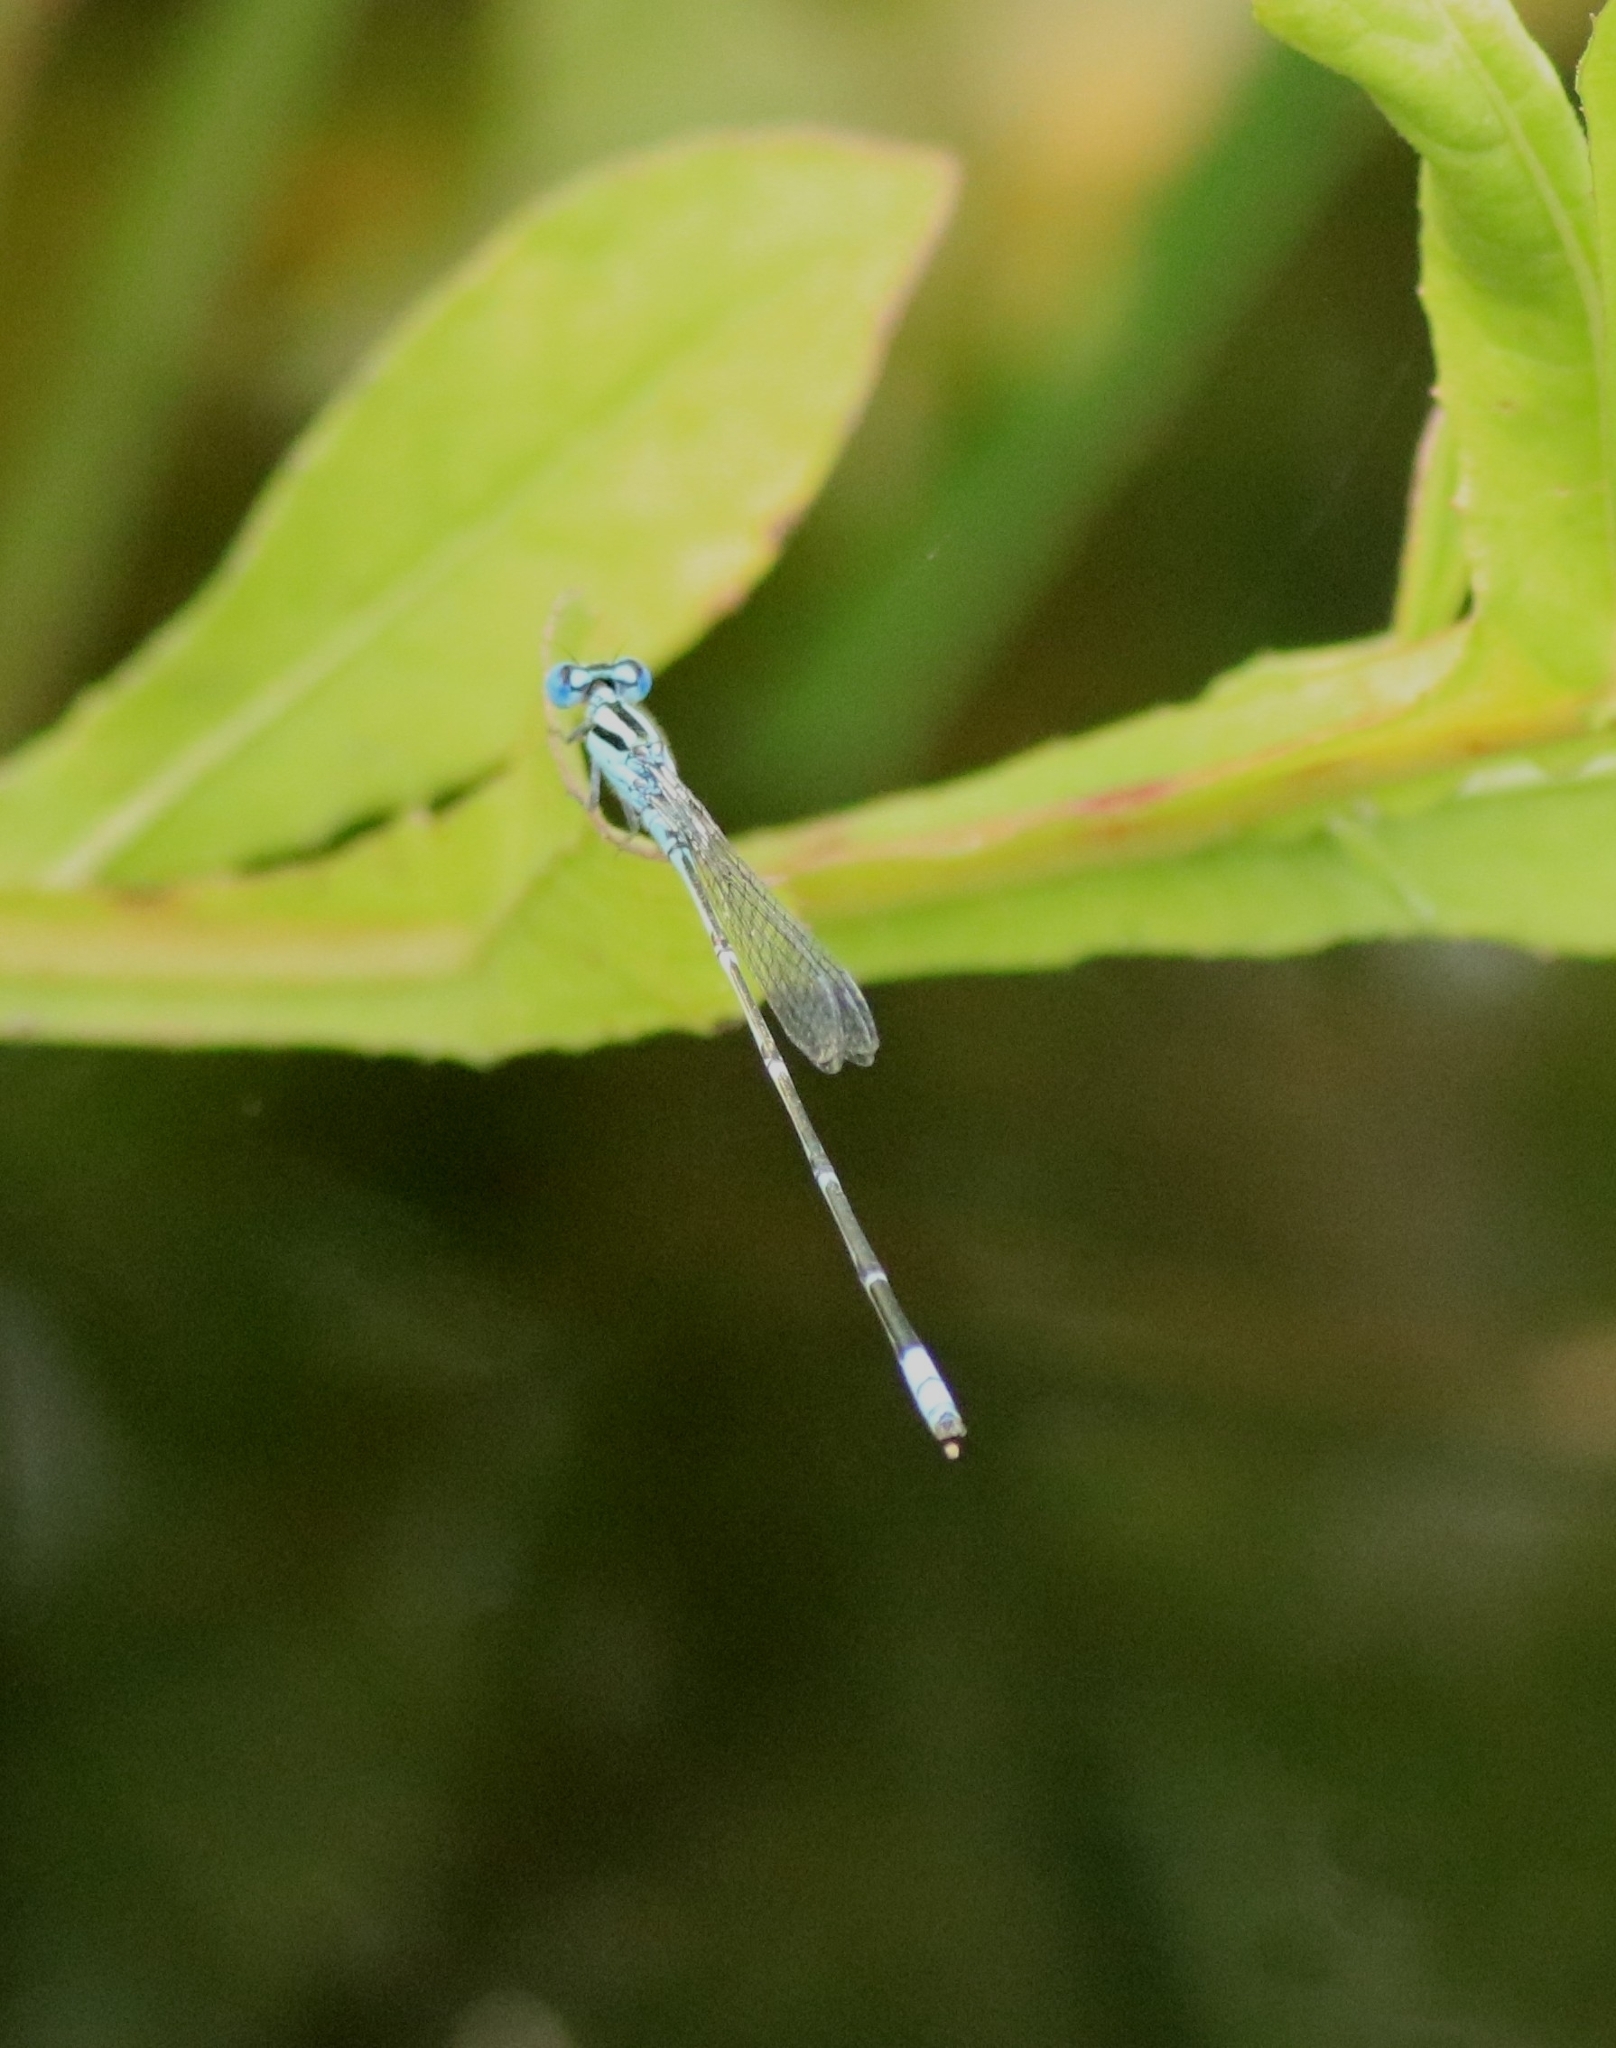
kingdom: Animalia
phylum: Arthropoda
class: Insecta
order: Odonata
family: Coenagrionidae
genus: Pseudagrion
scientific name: Pseudagrion microcephalum
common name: Blue riverdamsel
